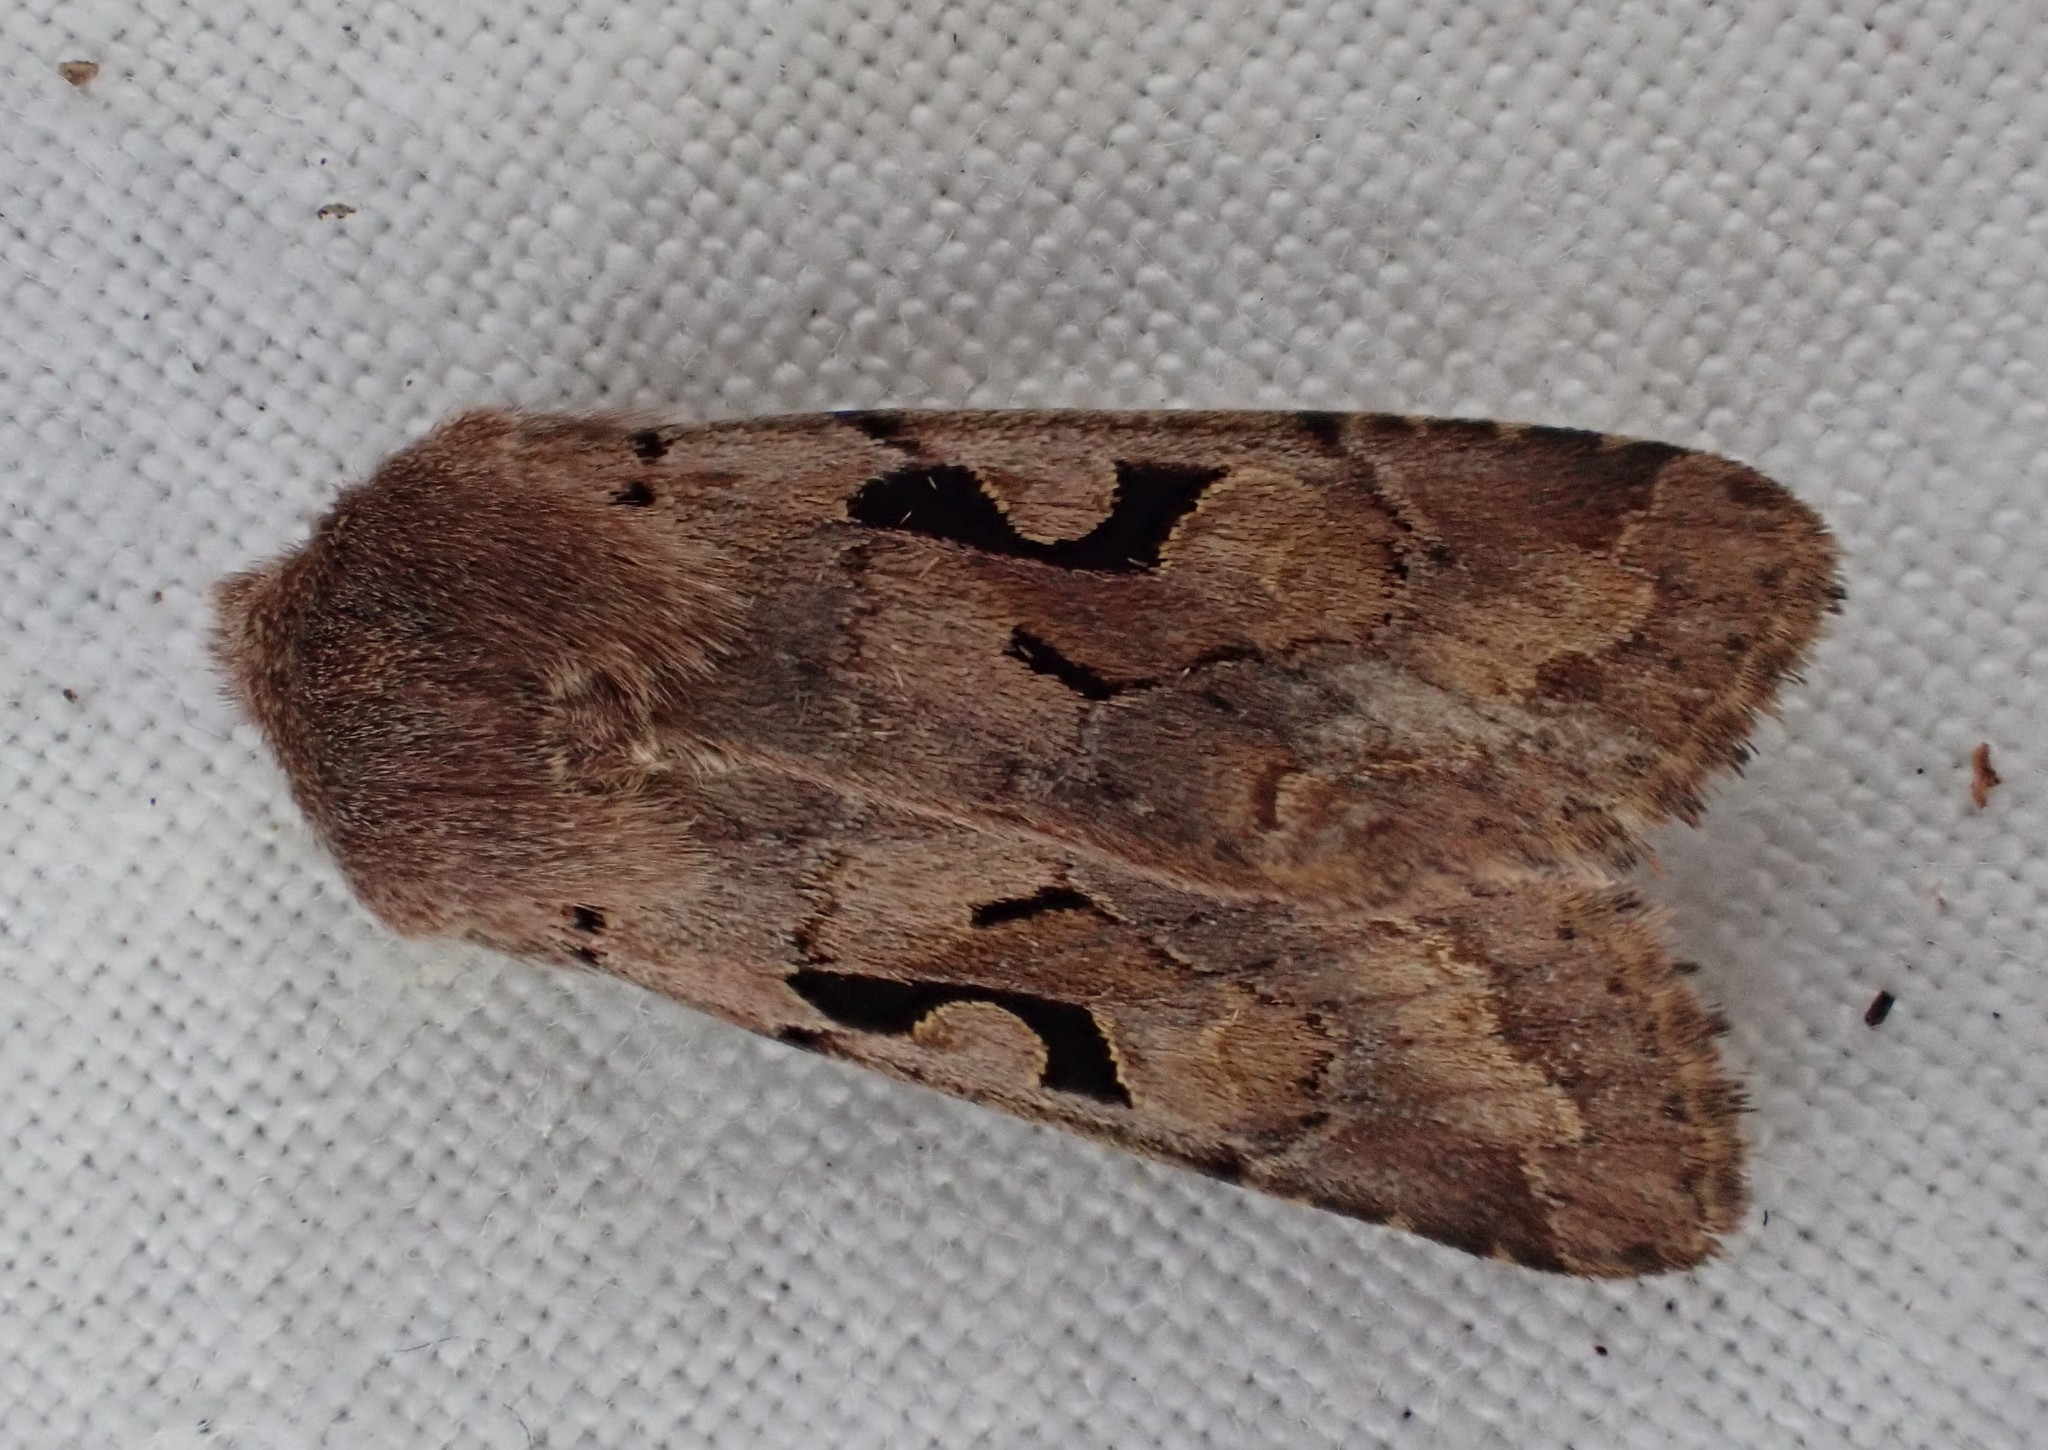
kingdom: Animalia
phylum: Arthropoda
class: Insecta
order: Lepidoptera
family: Noctuidae
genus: Orthosia
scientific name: Orthosia gothica
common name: Hebrew character
